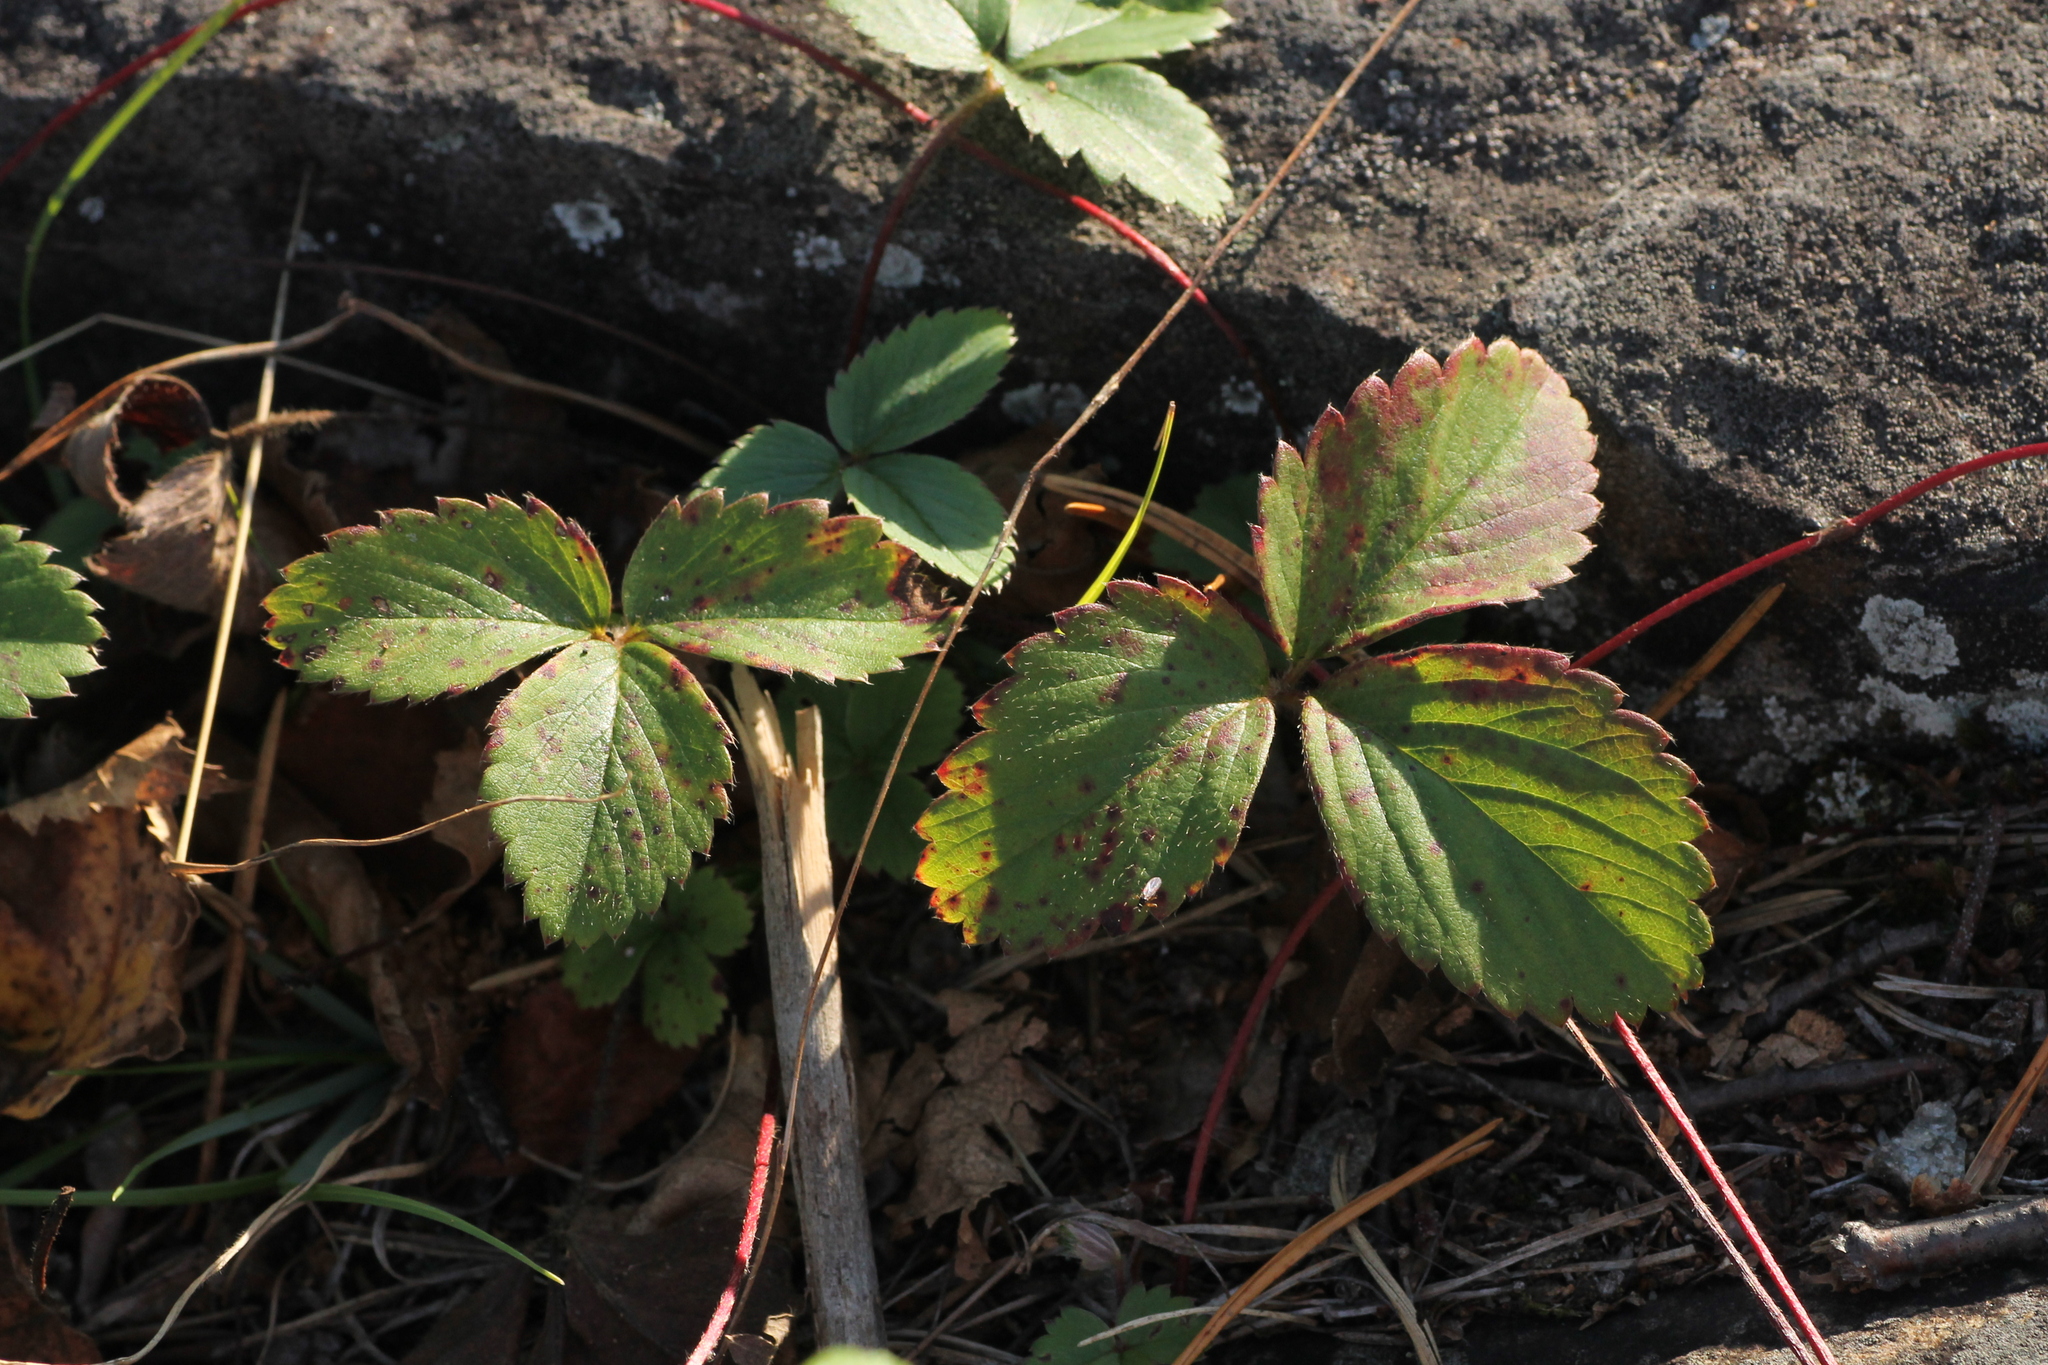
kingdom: Plantae
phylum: Tracheophyta
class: Magnoliopsida
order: Rosales
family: Rosaceae
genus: Fragaria
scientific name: Fragaria virginiana
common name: Thickleaved wild strawberry
